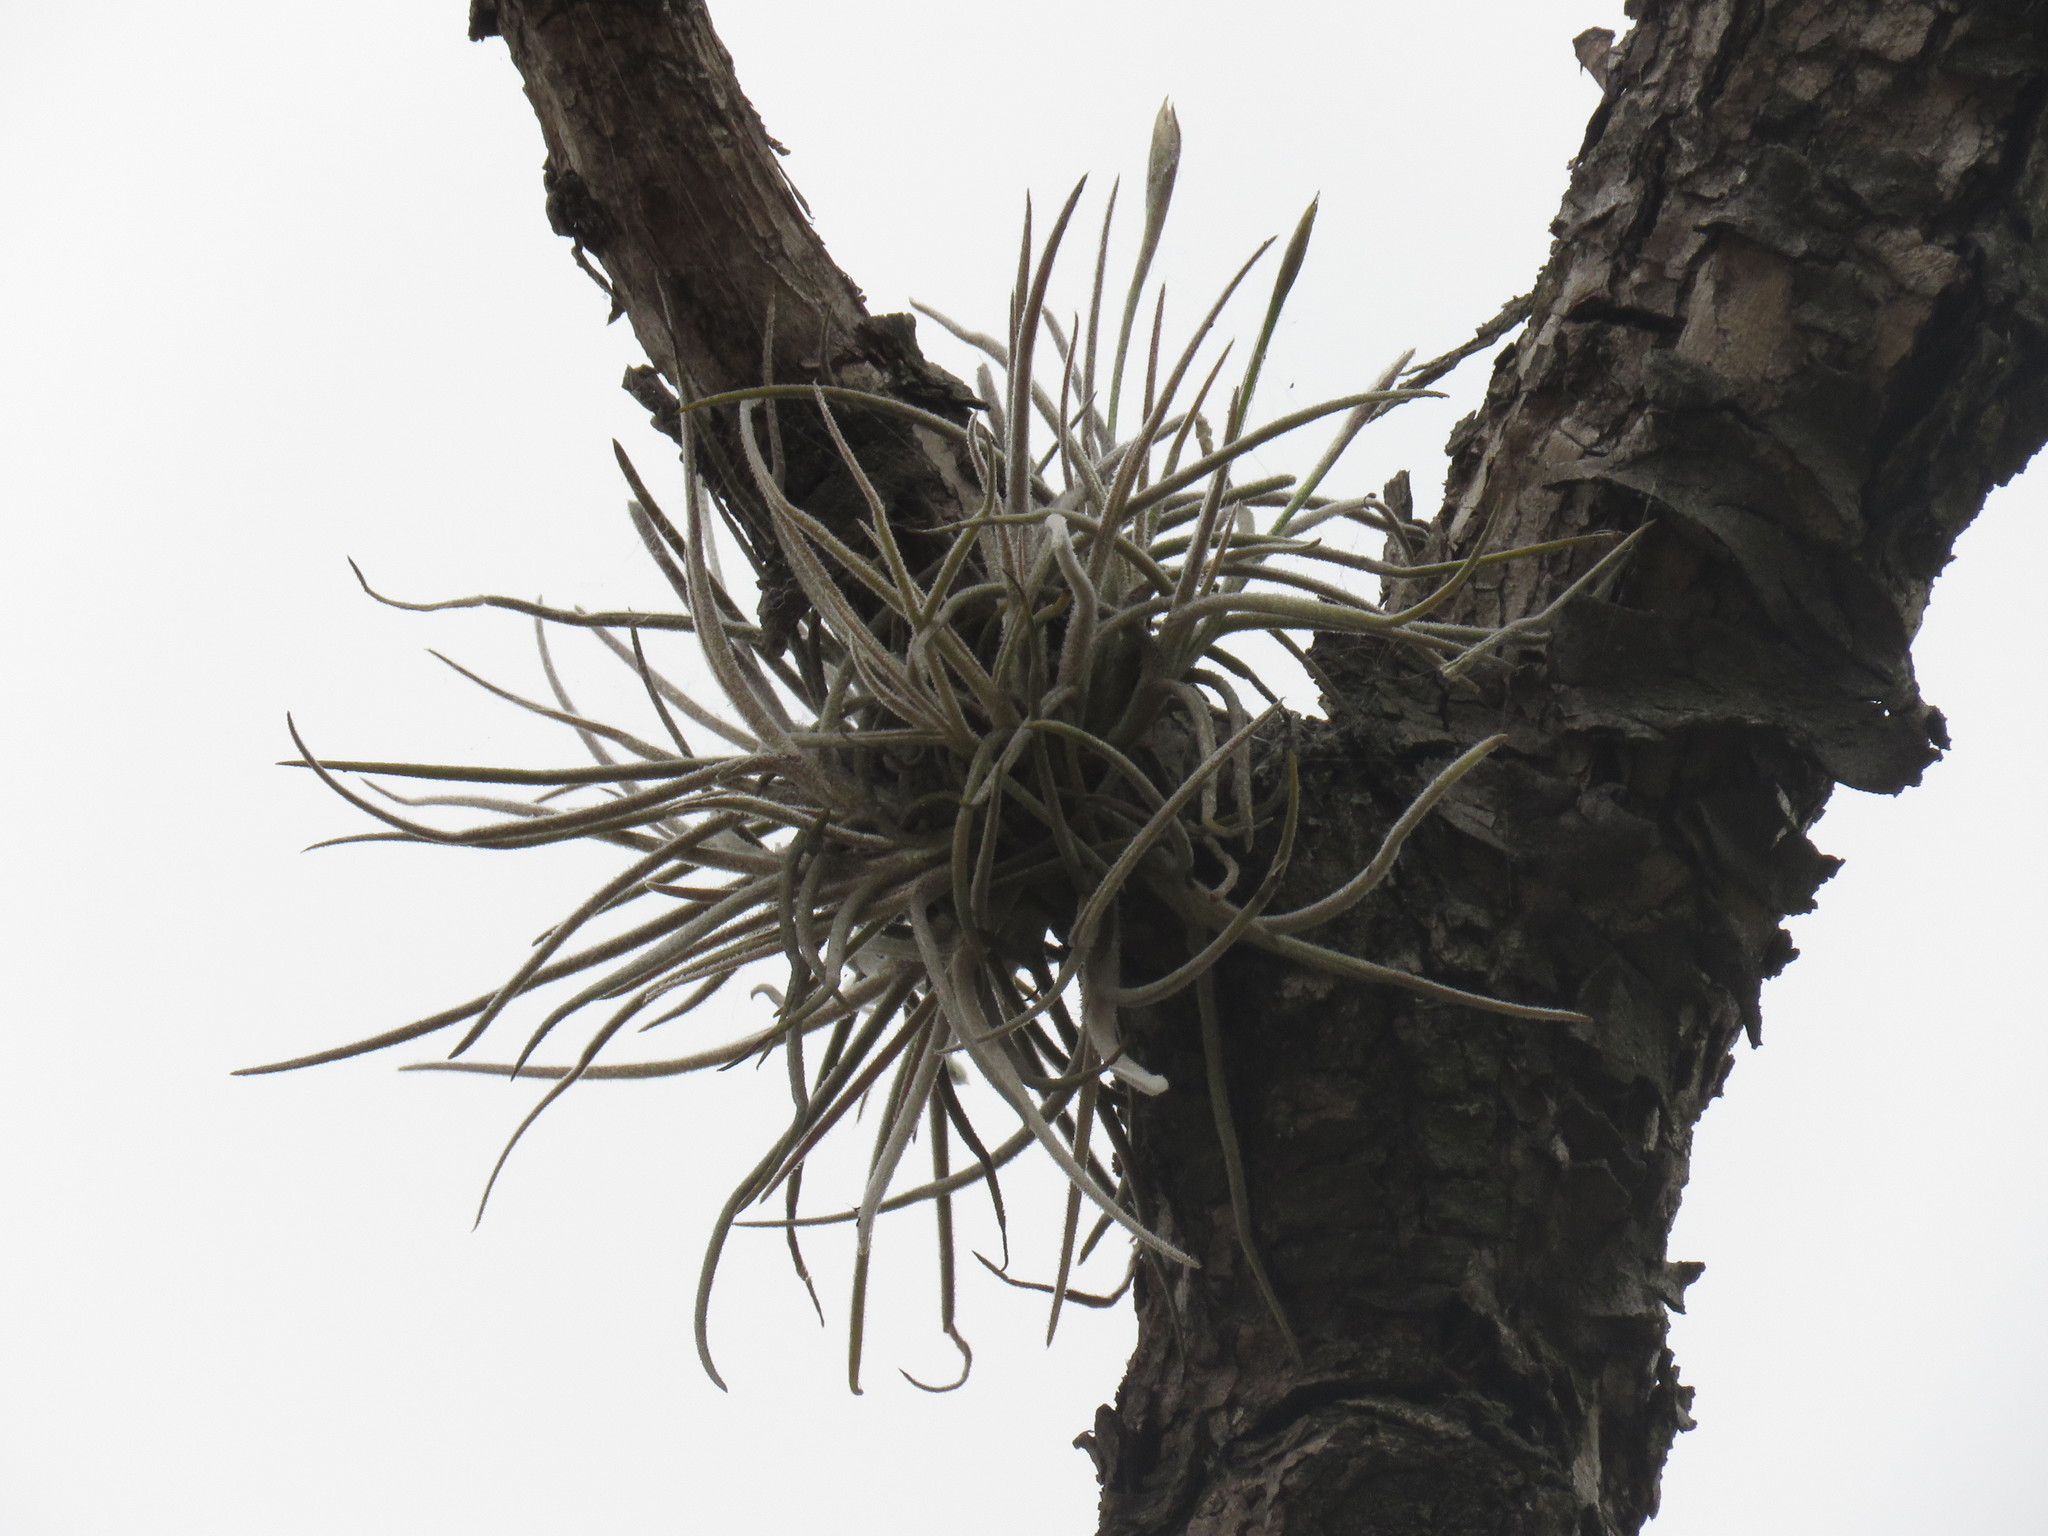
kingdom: Plantae
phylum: Tracheophyta
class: Liliopsida
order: Poales
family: Bromeliaceae
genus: Tillandsia
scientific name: Tillandsia recurvata
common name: Small ballmoss
